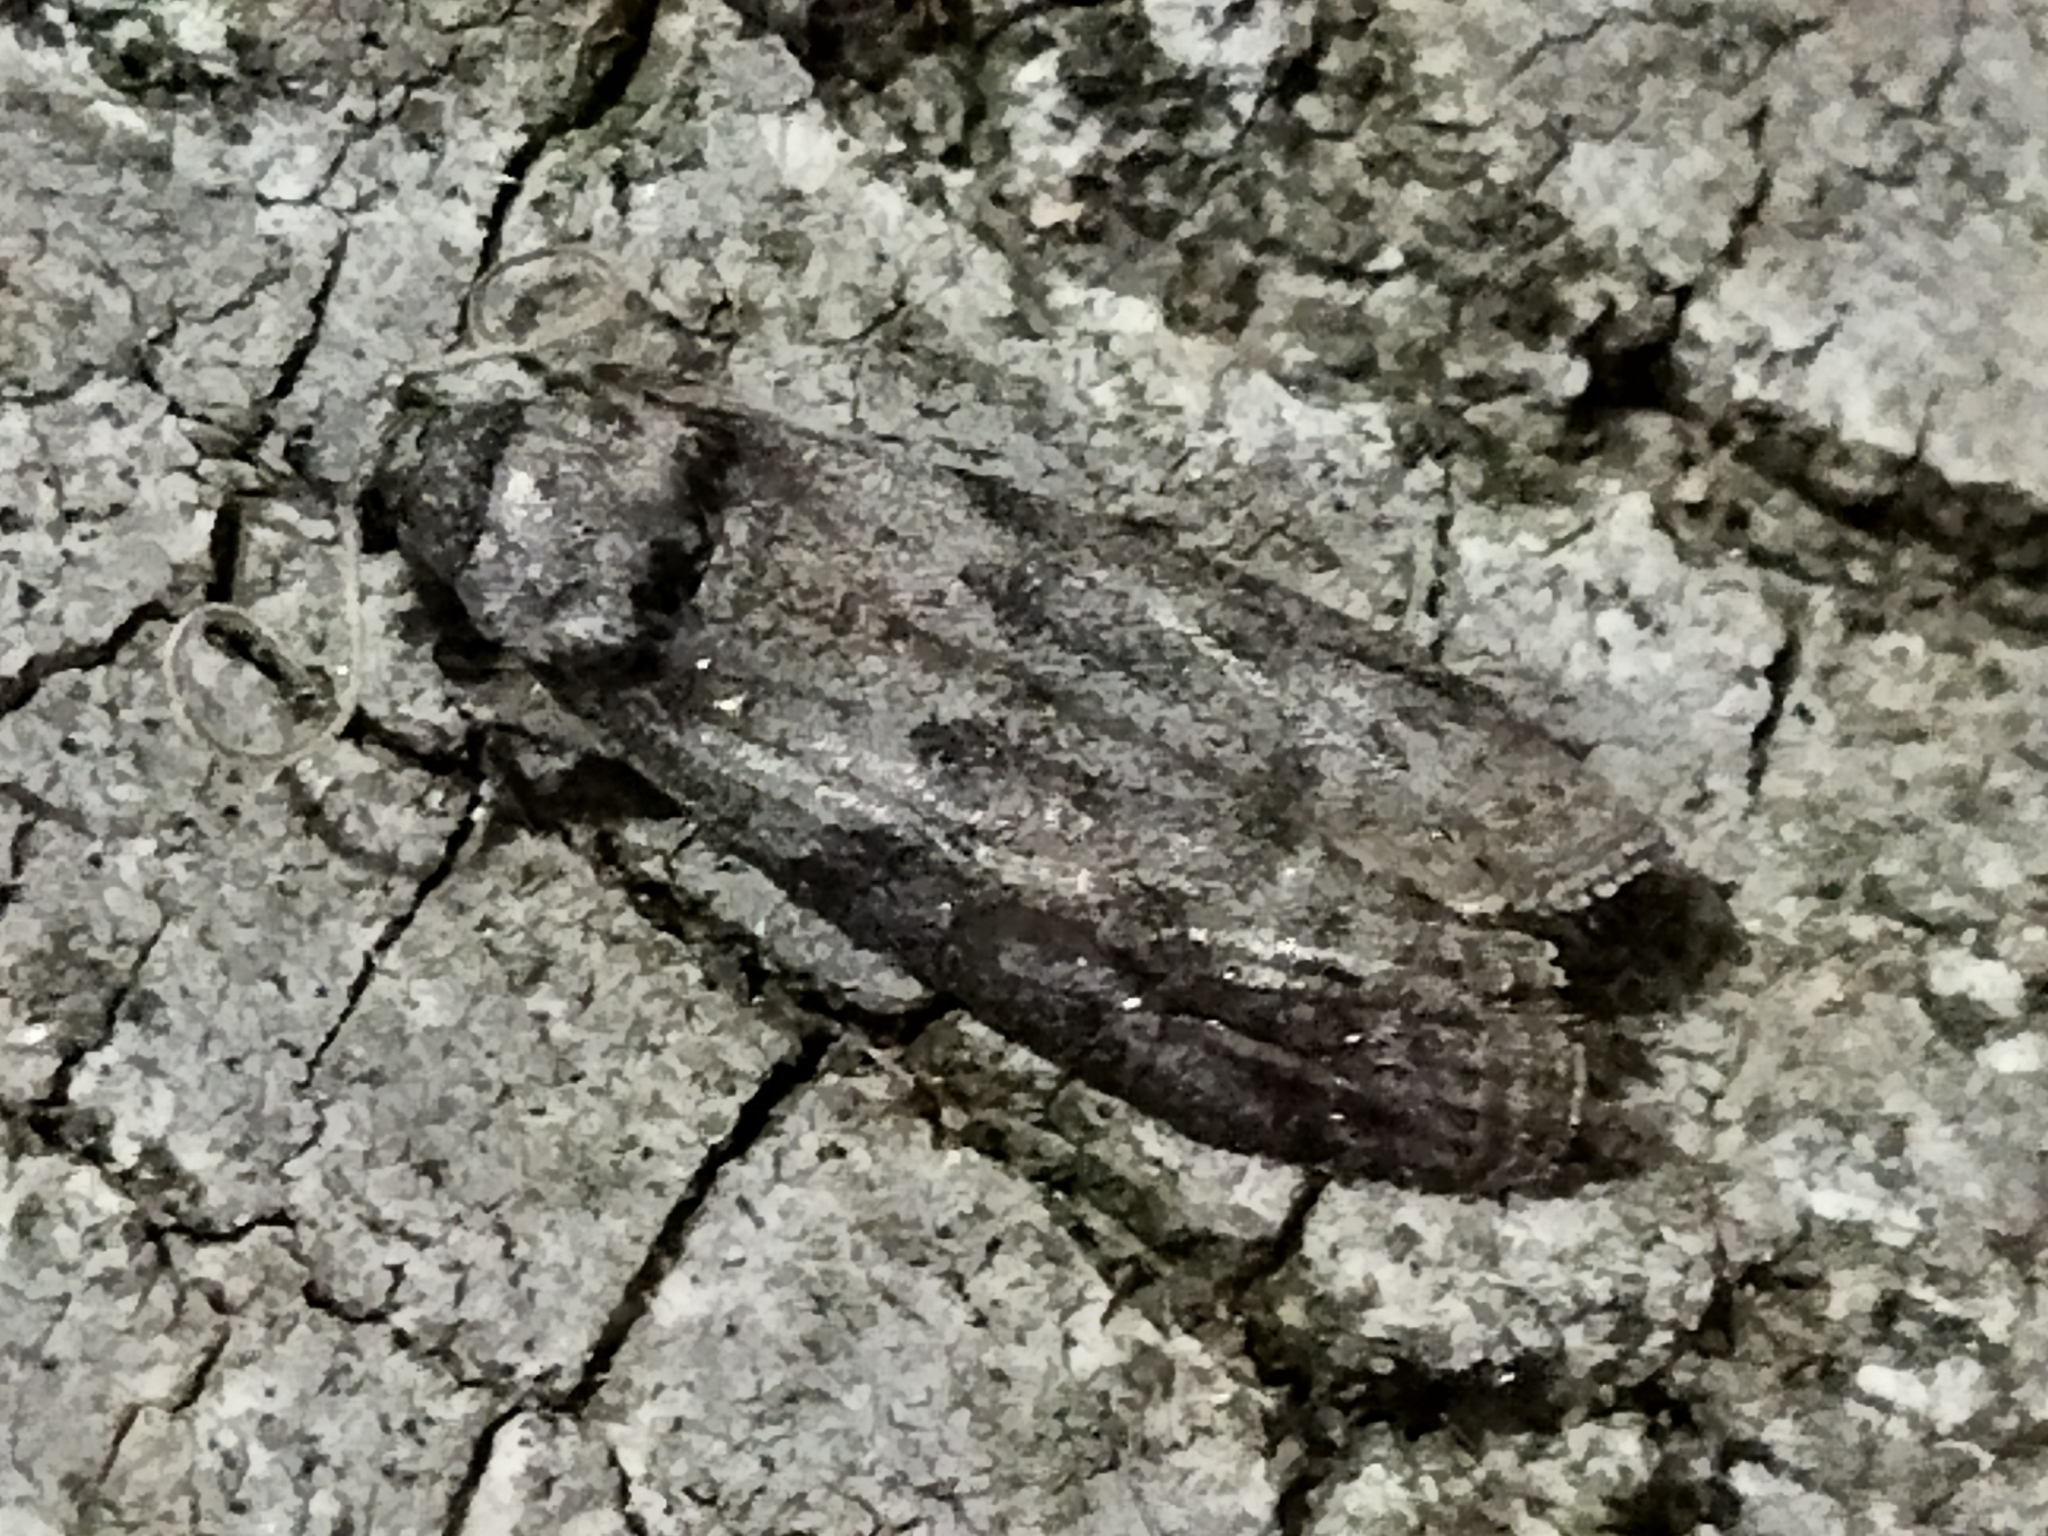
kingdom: Animalia
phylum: Arthropoda
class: Insecta
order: Lepidoptera
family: Pyralidae
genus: Ectomyelois
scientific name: Ectomyelois ceratoniae
